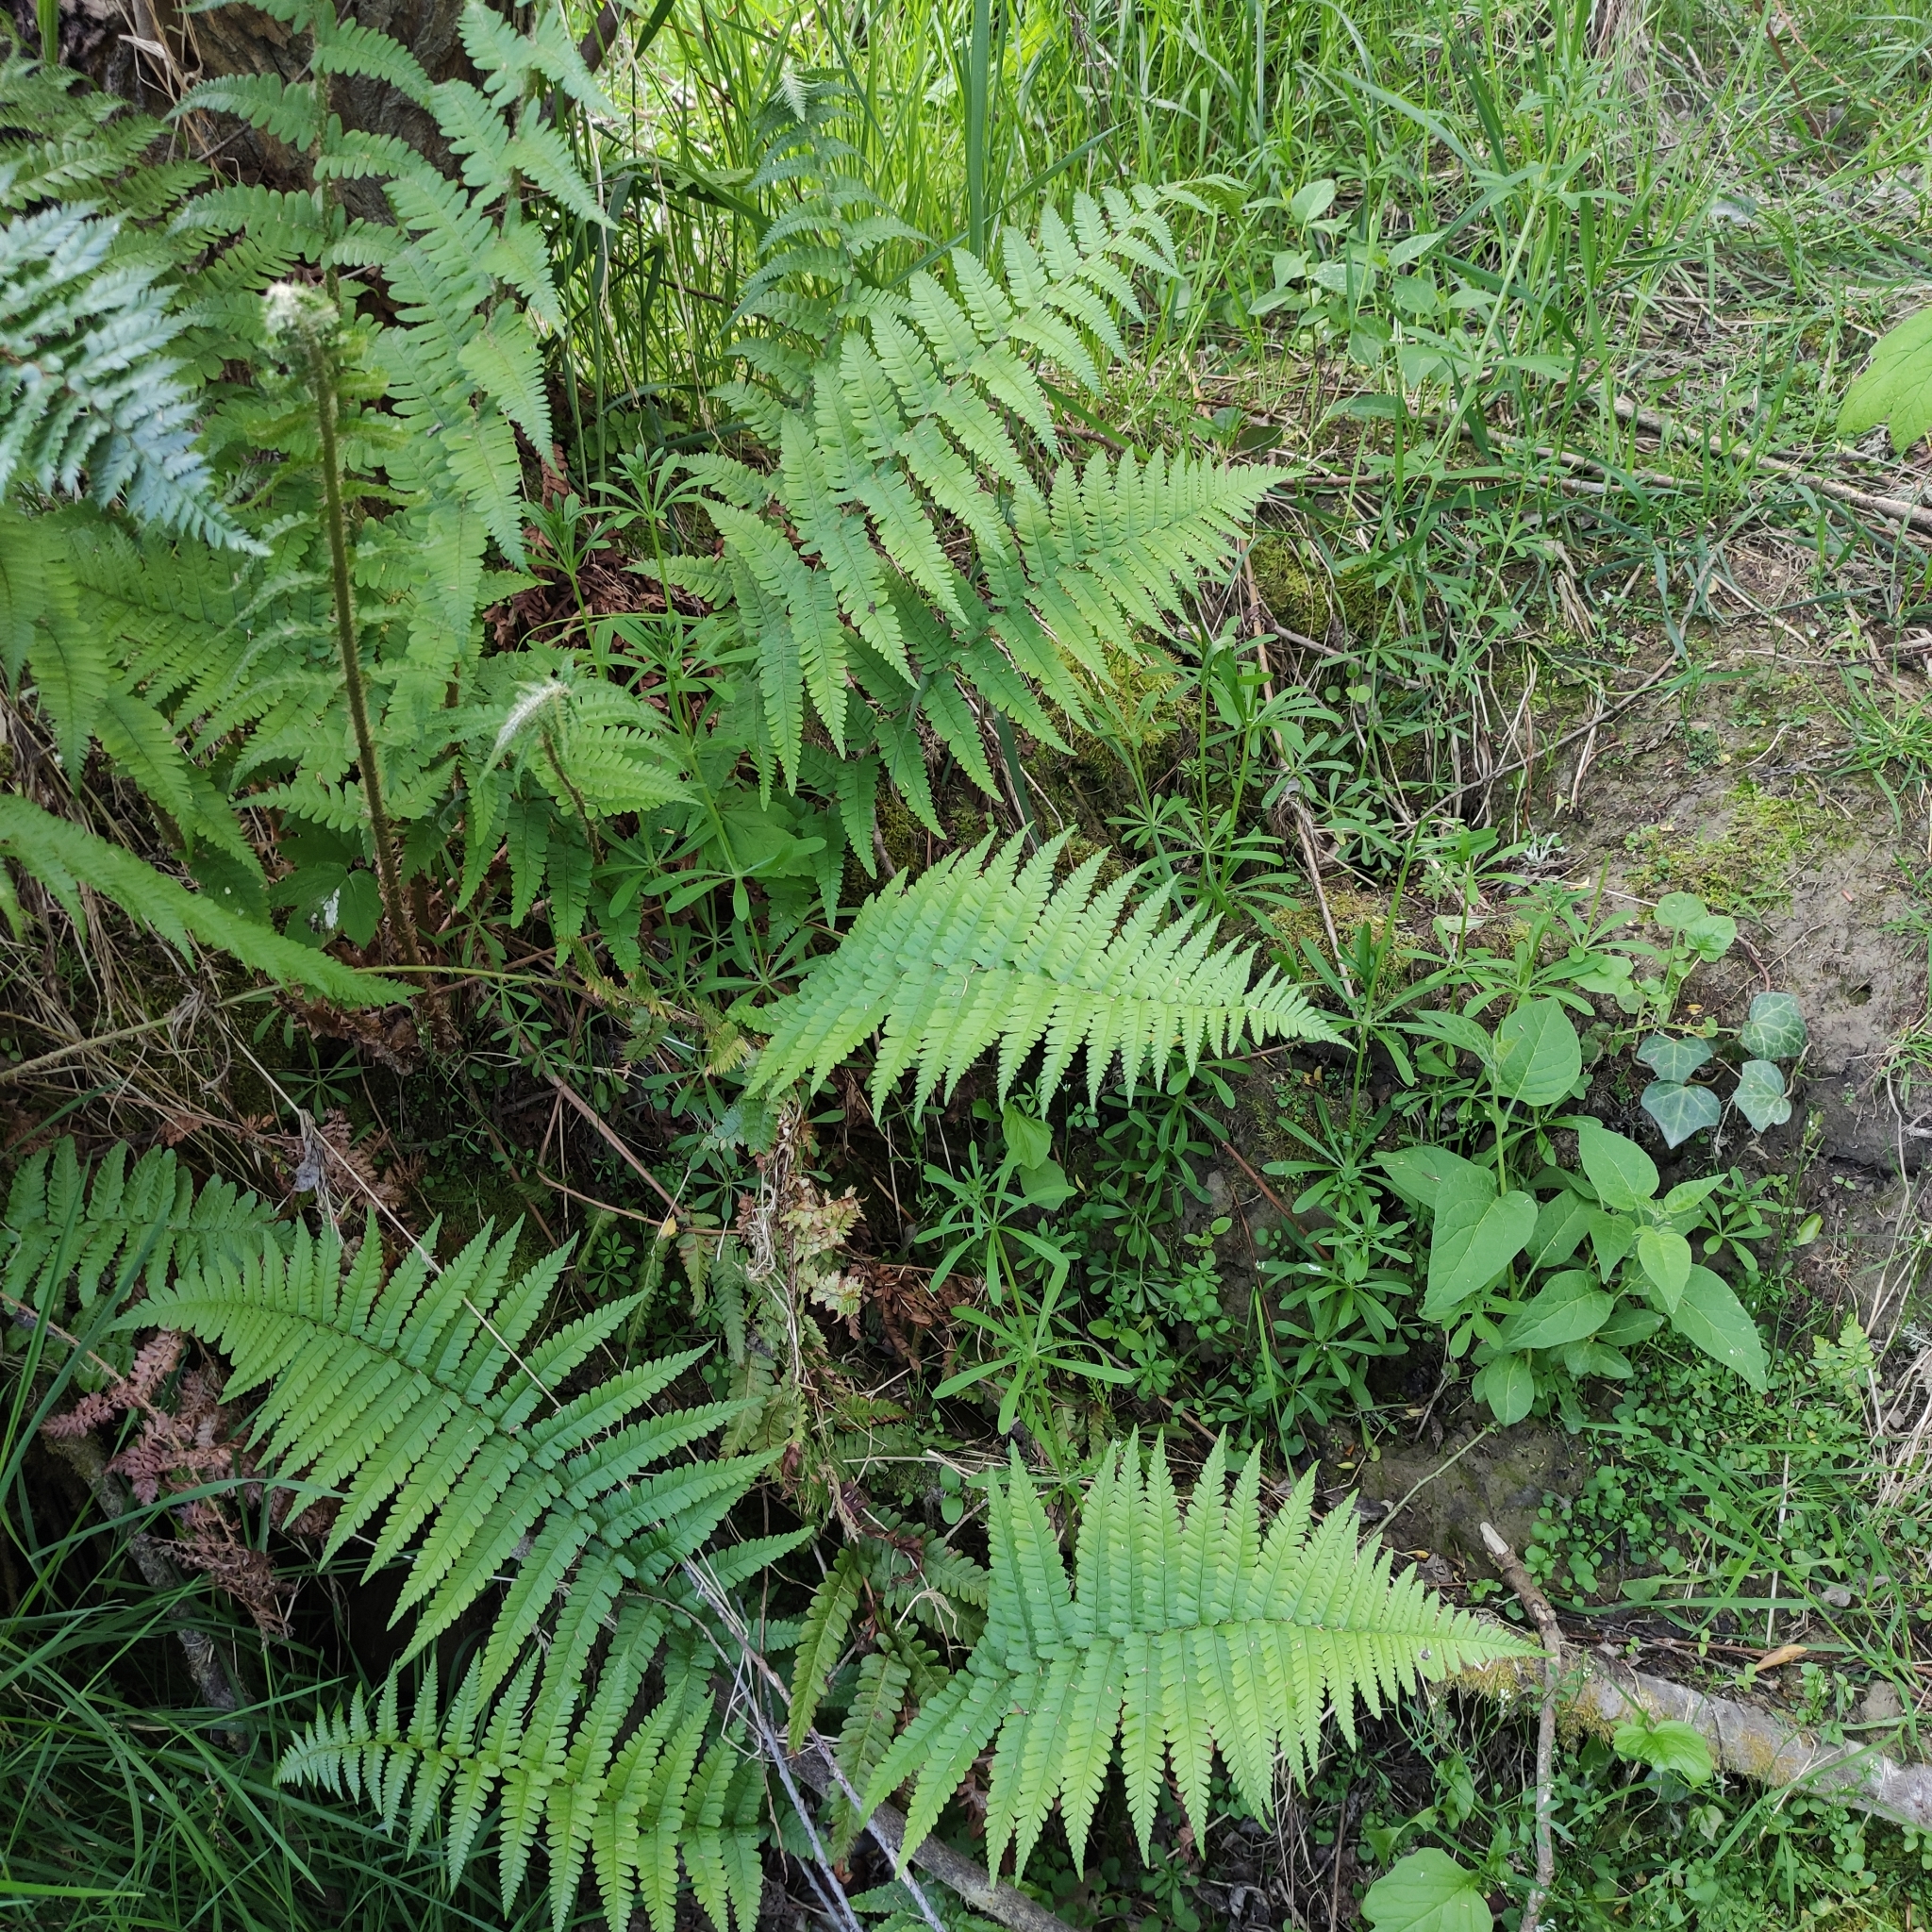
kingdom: Plantae
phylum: Tracheophyta
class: Polypodiopsida
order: Polypodiales
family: Dryopteridaceae
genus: Dryopteris
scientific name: Dryopteris filix-mas
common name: Male fern
